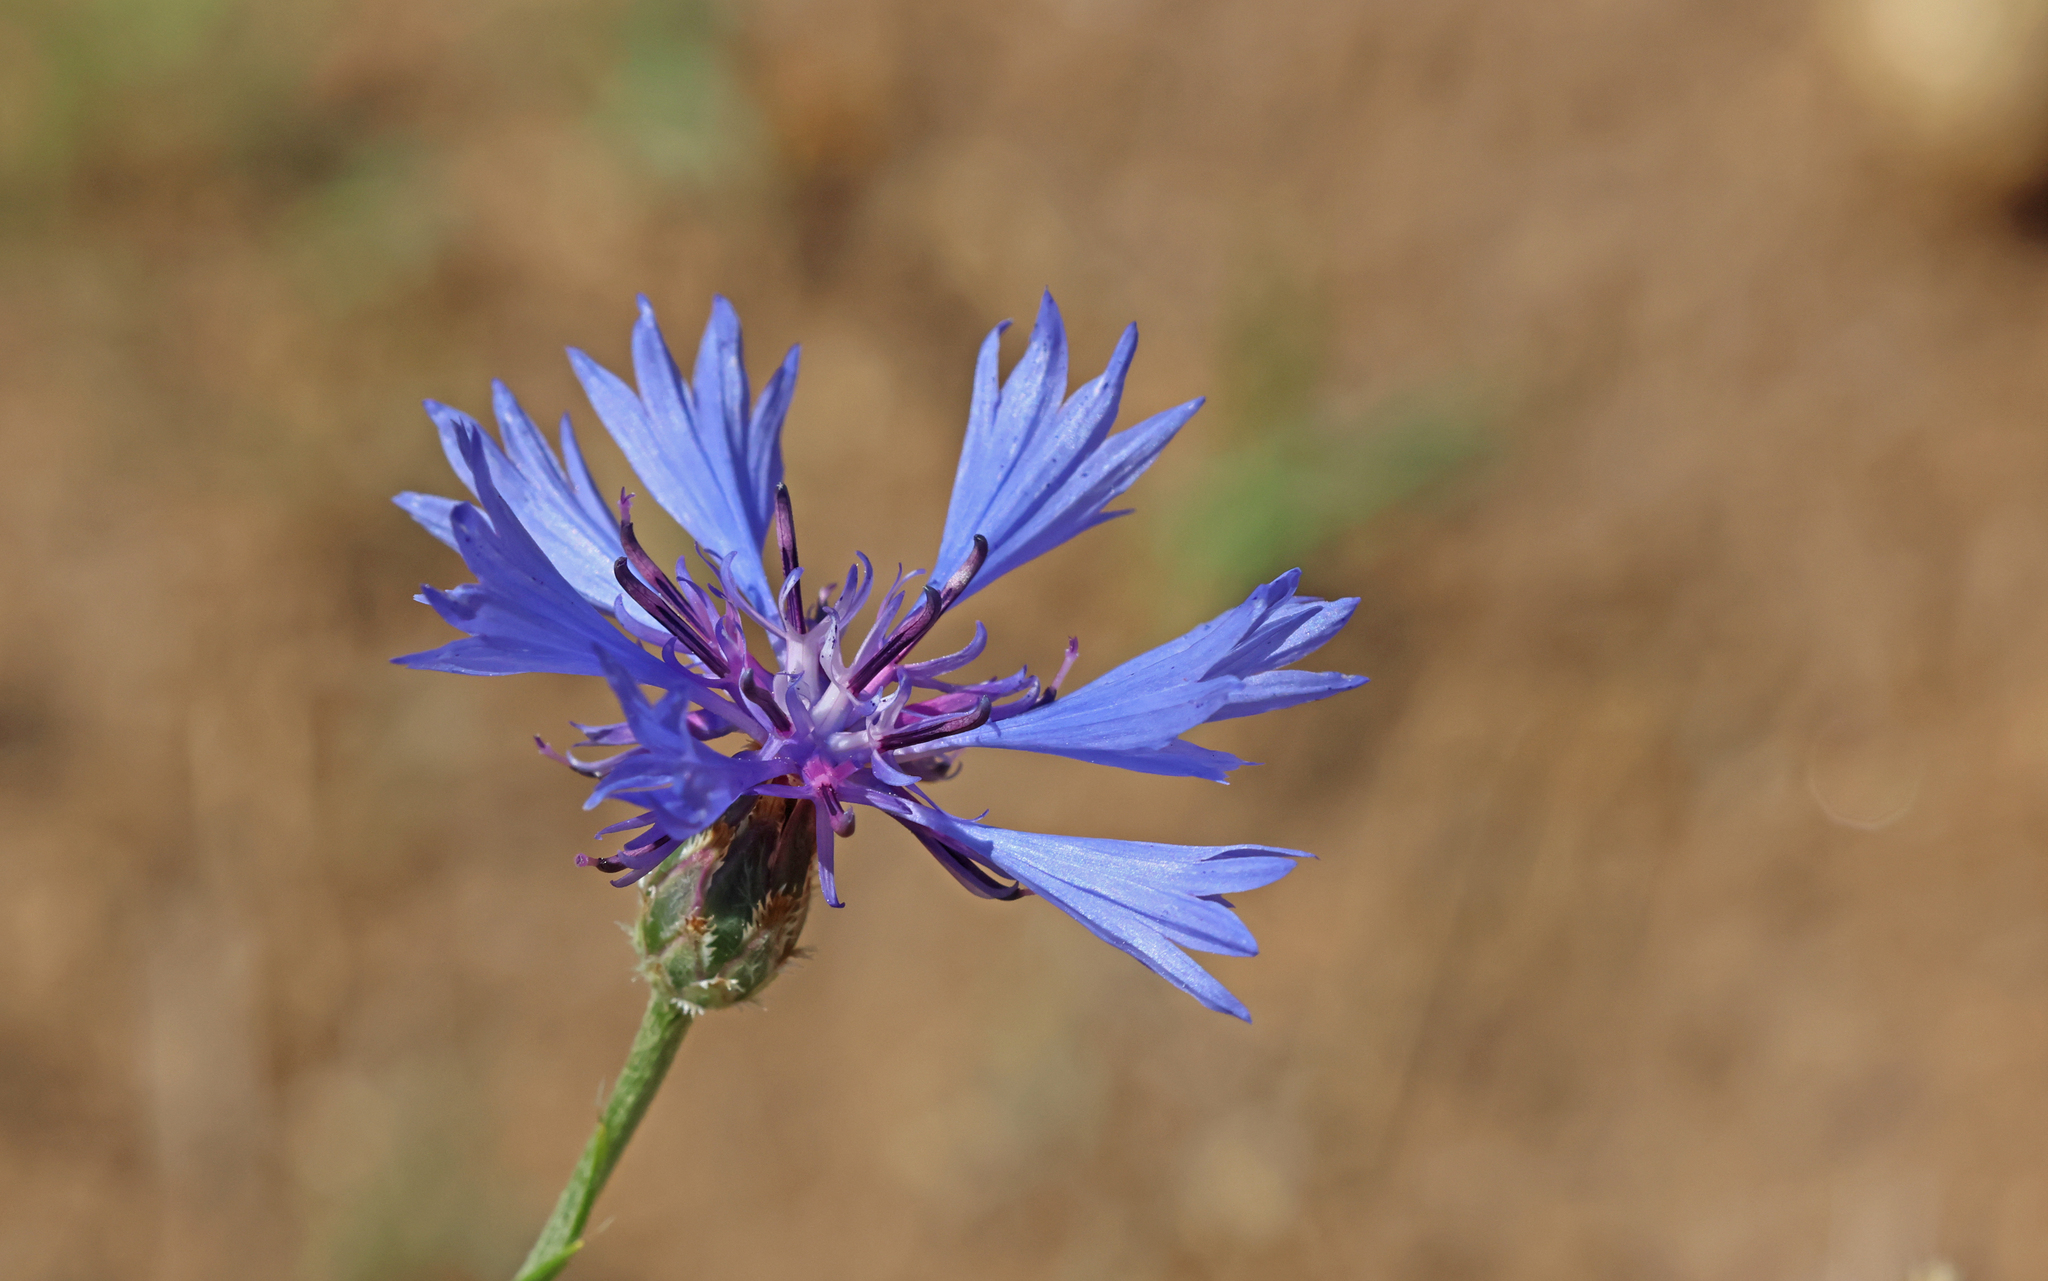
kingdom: Plantae
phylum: Tracheophyta
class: Magnoliopsida
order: Asterales
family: Asteraceae
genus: Centaurea
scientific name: Centaurea cyanus
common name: Cornflower
